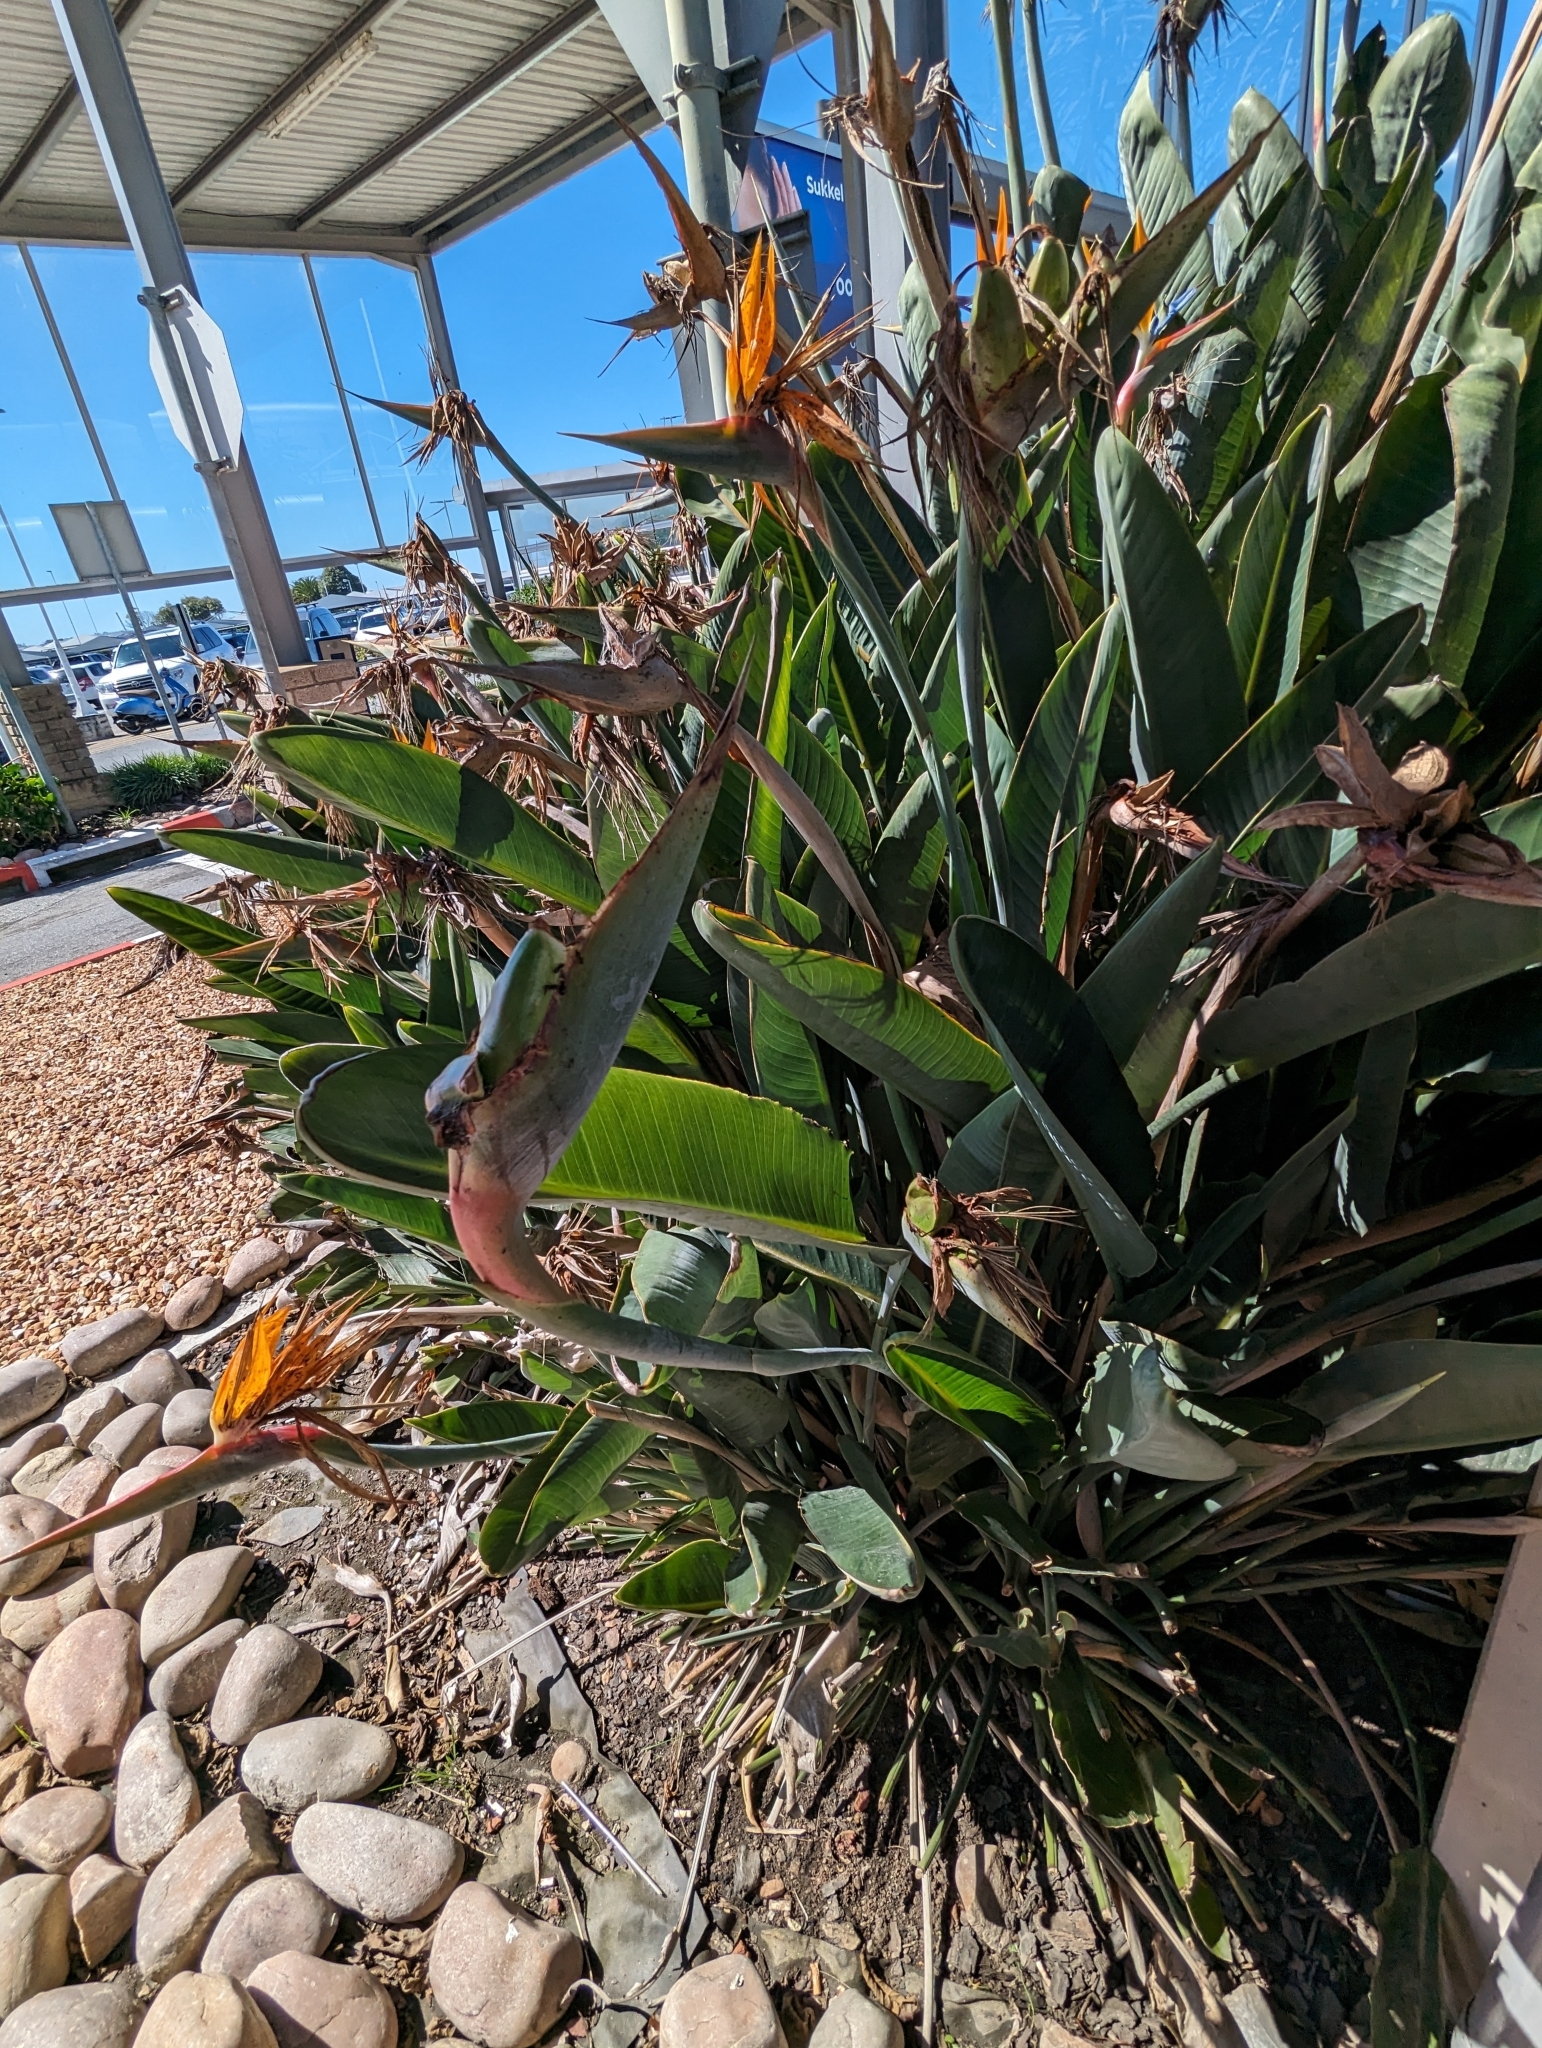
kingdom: Animalia
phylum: Arthropoda
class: Insecta
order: Hymenoptera
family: Formicidae
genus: Crematogaster
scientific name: Crematogaster peringueyi
